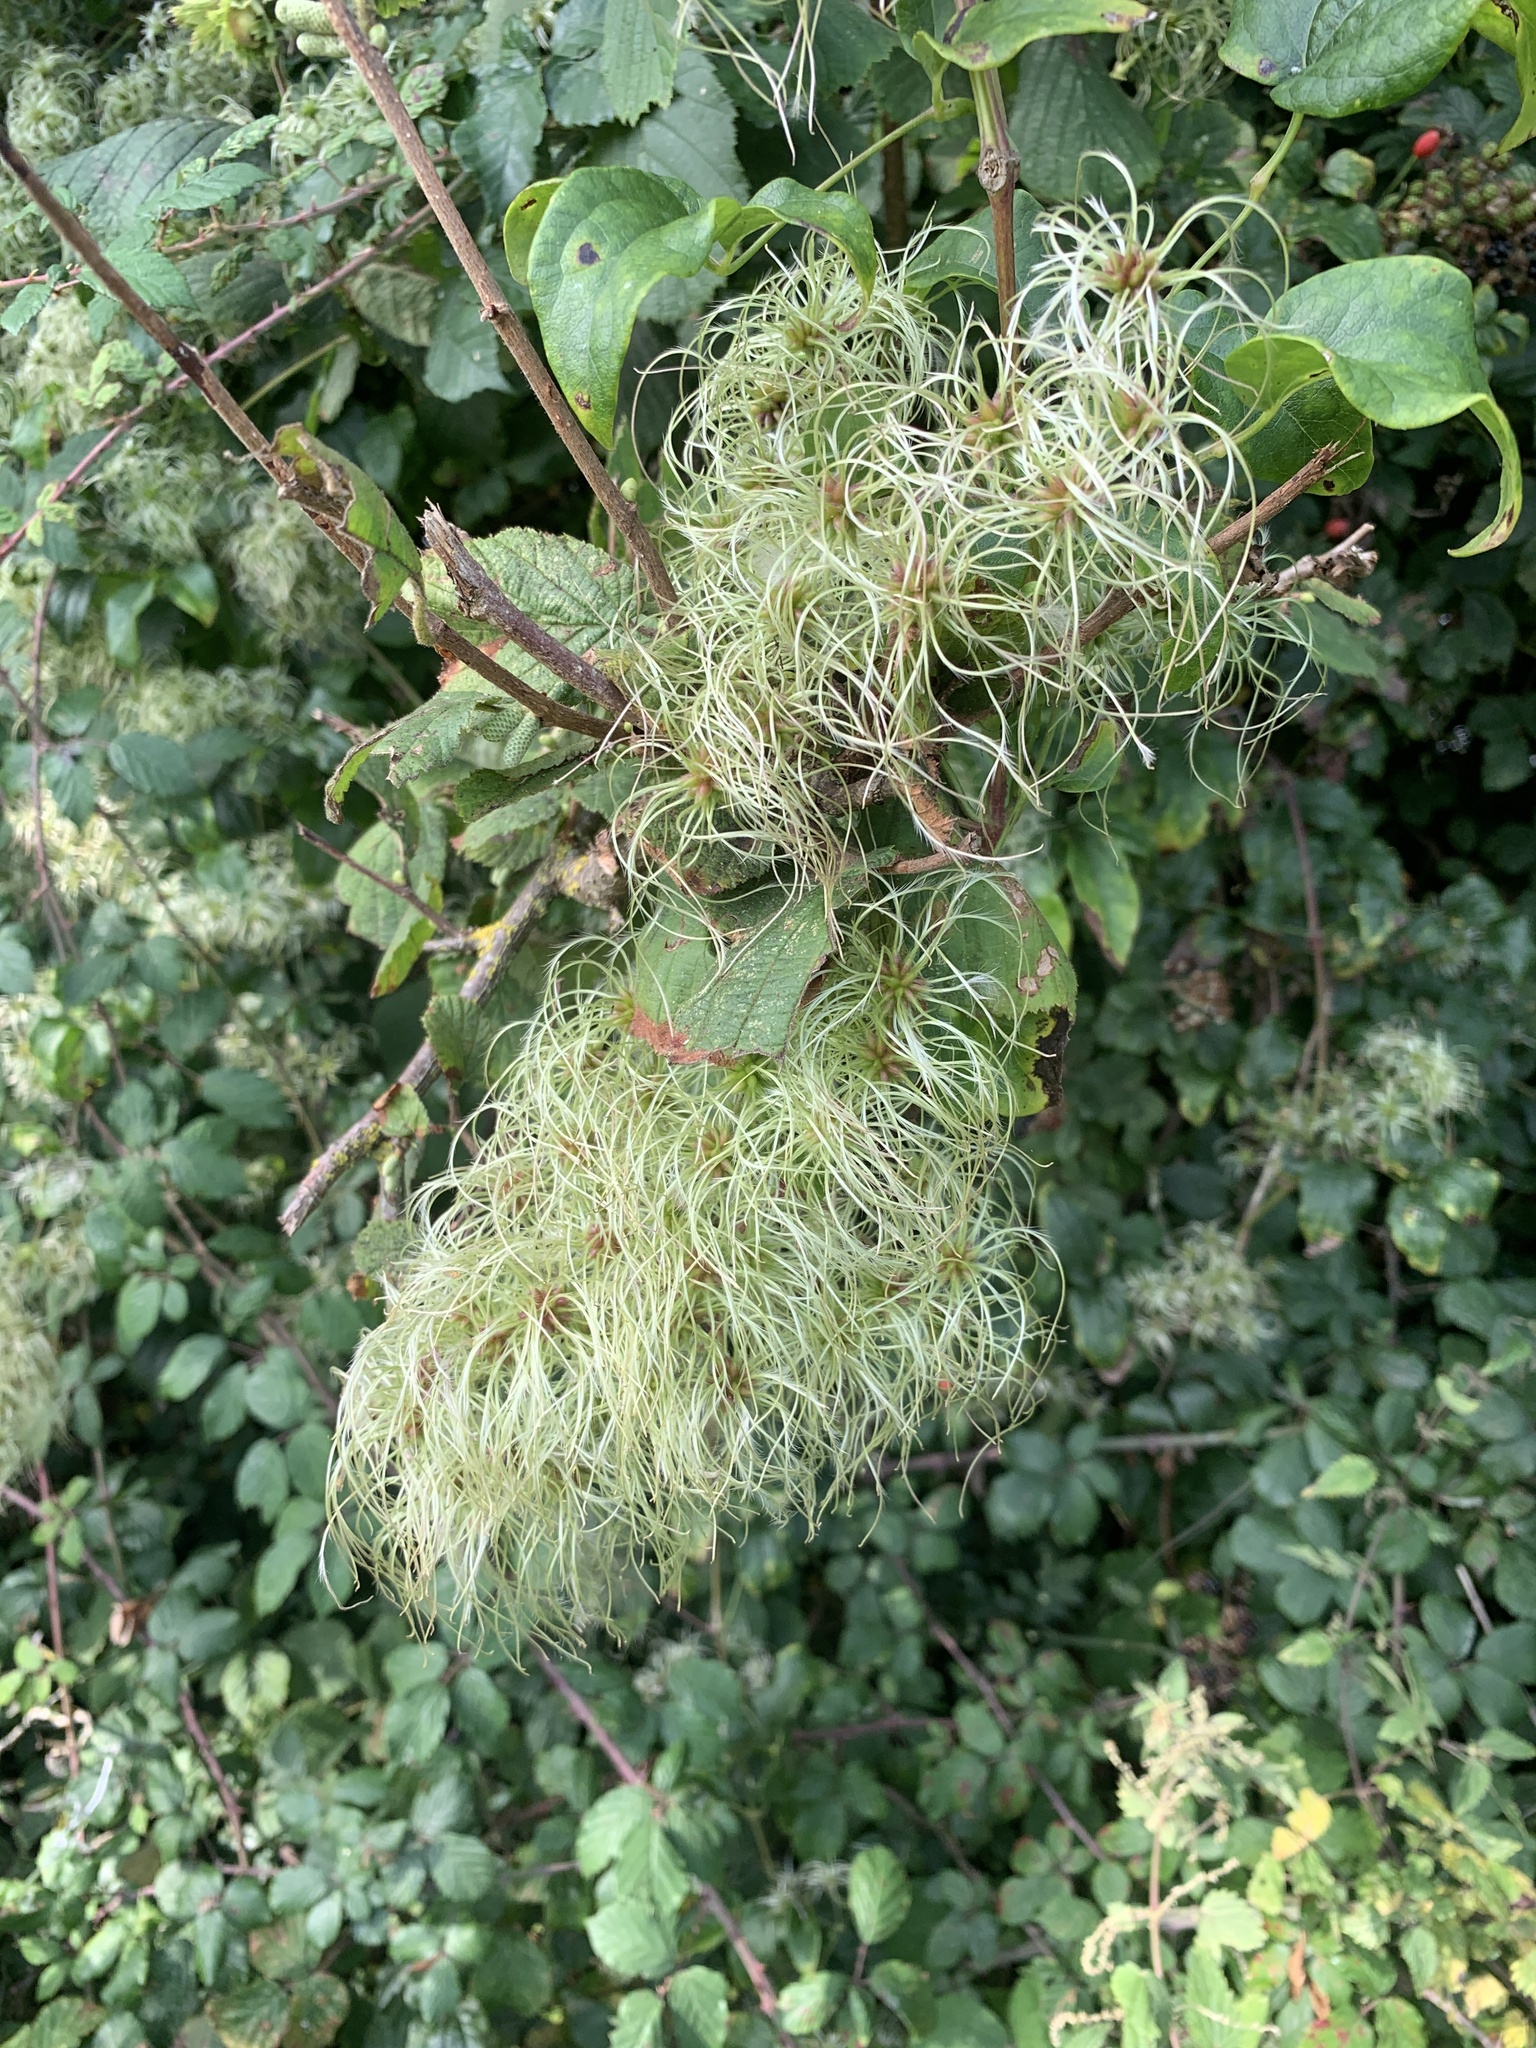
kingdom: Plantae
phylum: Tracheophyta
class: Magnoliopsida
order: Ranunculales
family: Ranunculaceae
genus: Clematis
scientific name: Clematis vitalba
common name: Evergreen clematis
